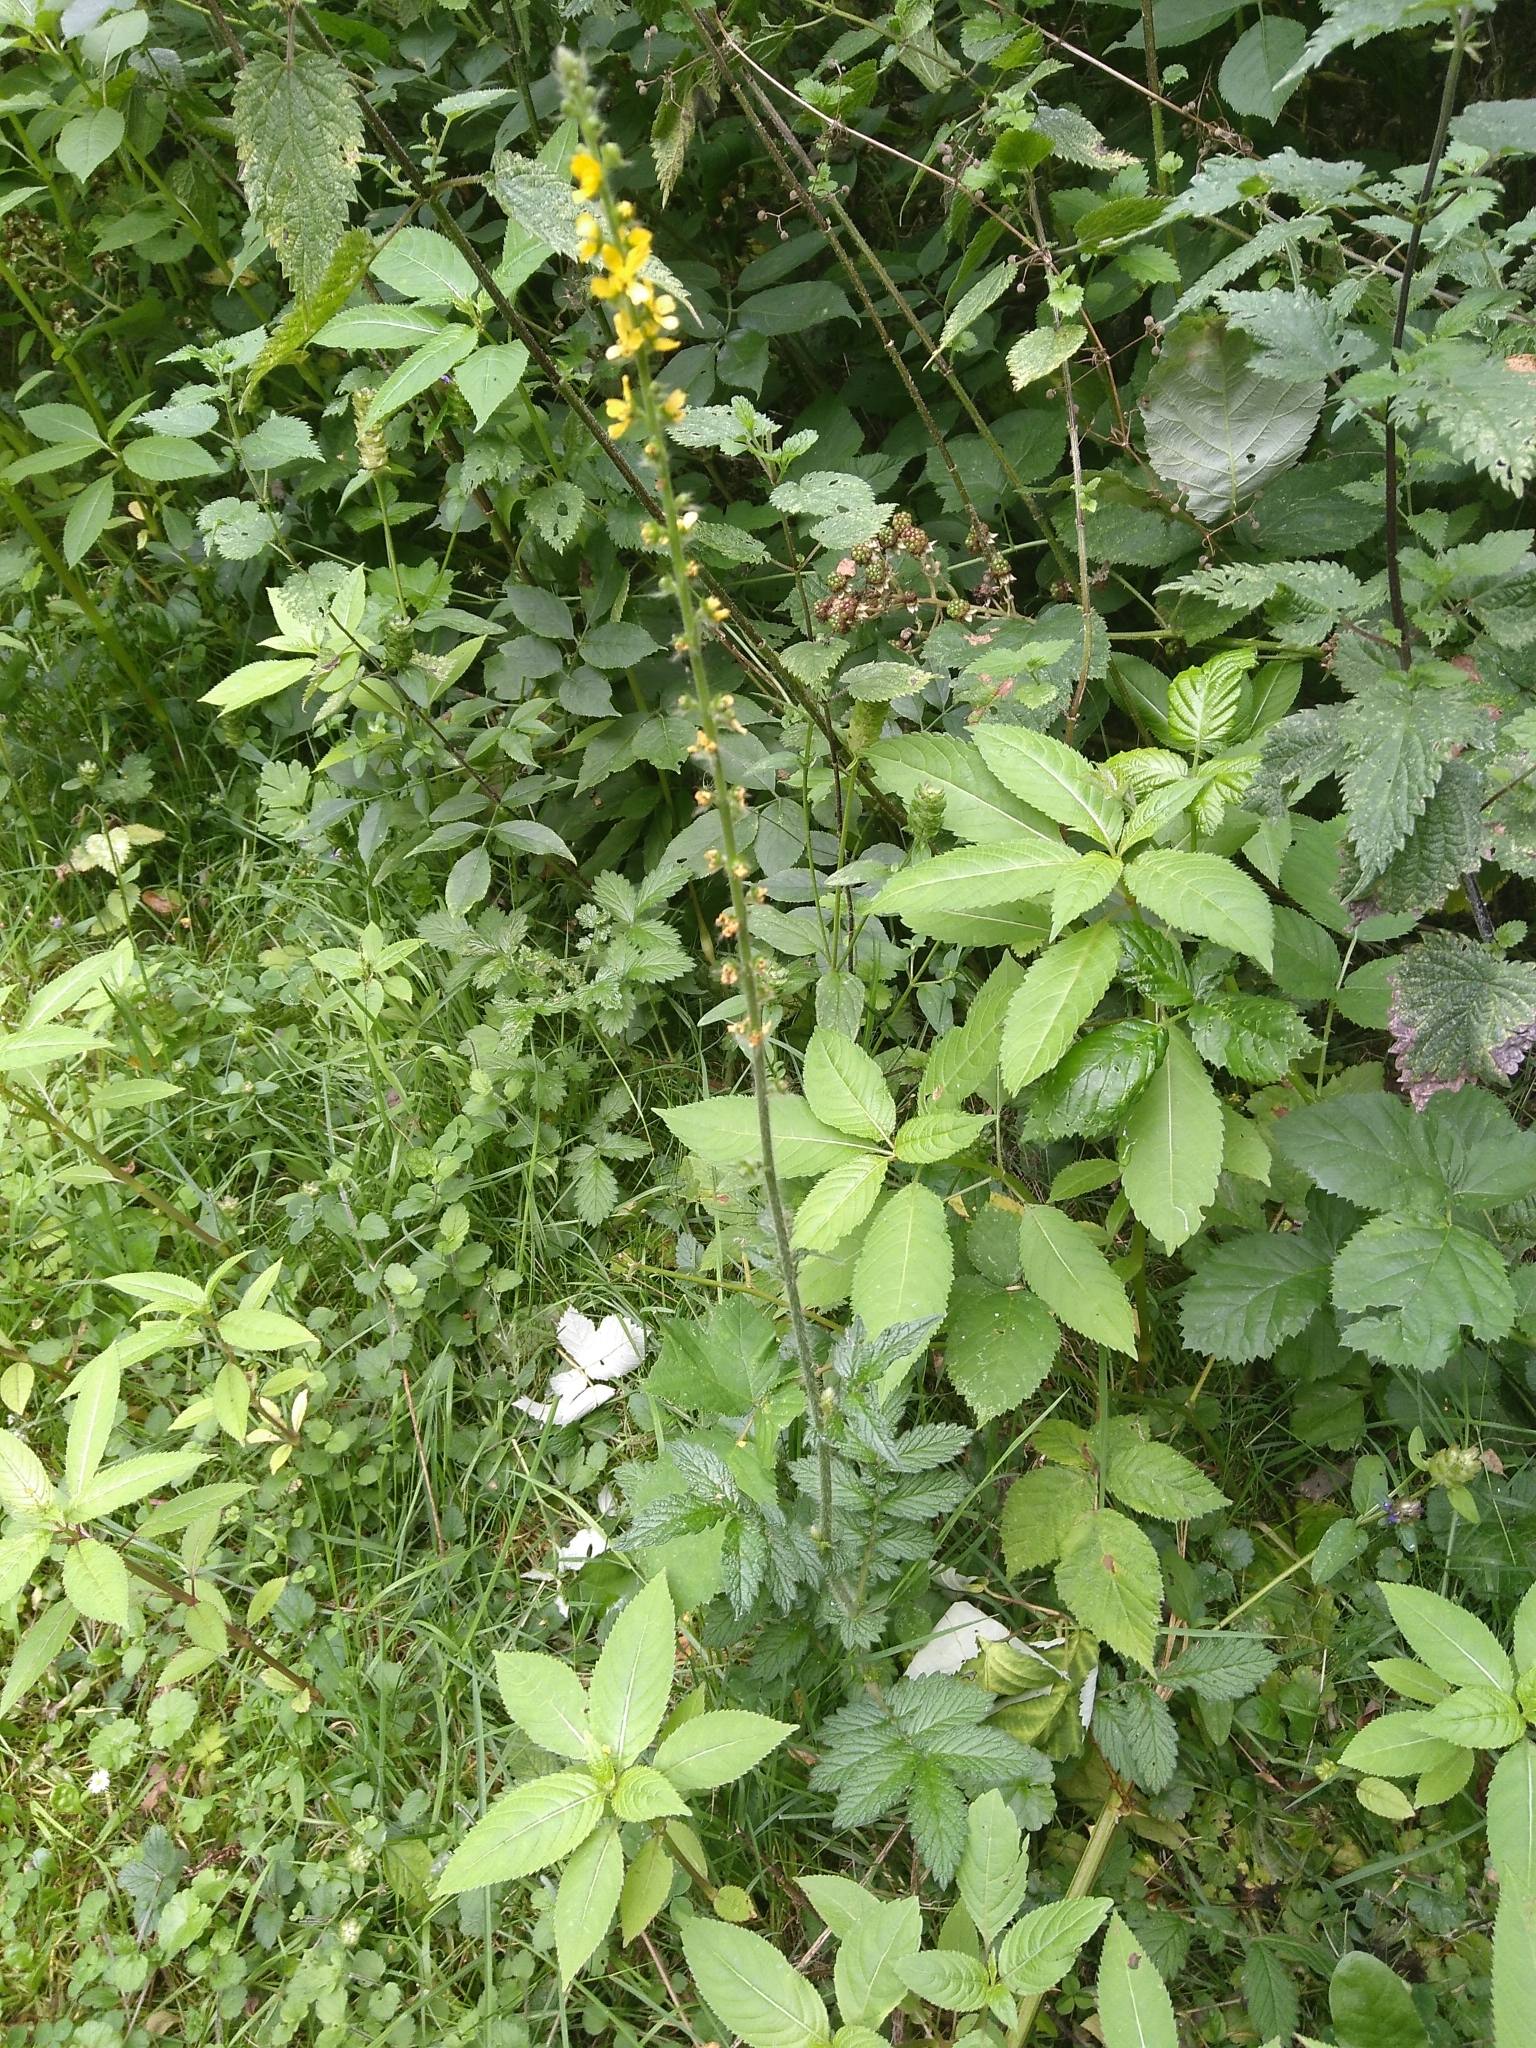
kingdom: Plantae
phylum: Tracheophyta
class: Magnoliopsida
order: Rosales
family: Rosaceae
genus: Agrimonia
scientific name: Agrimonia eupatoria
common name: Agrimony
